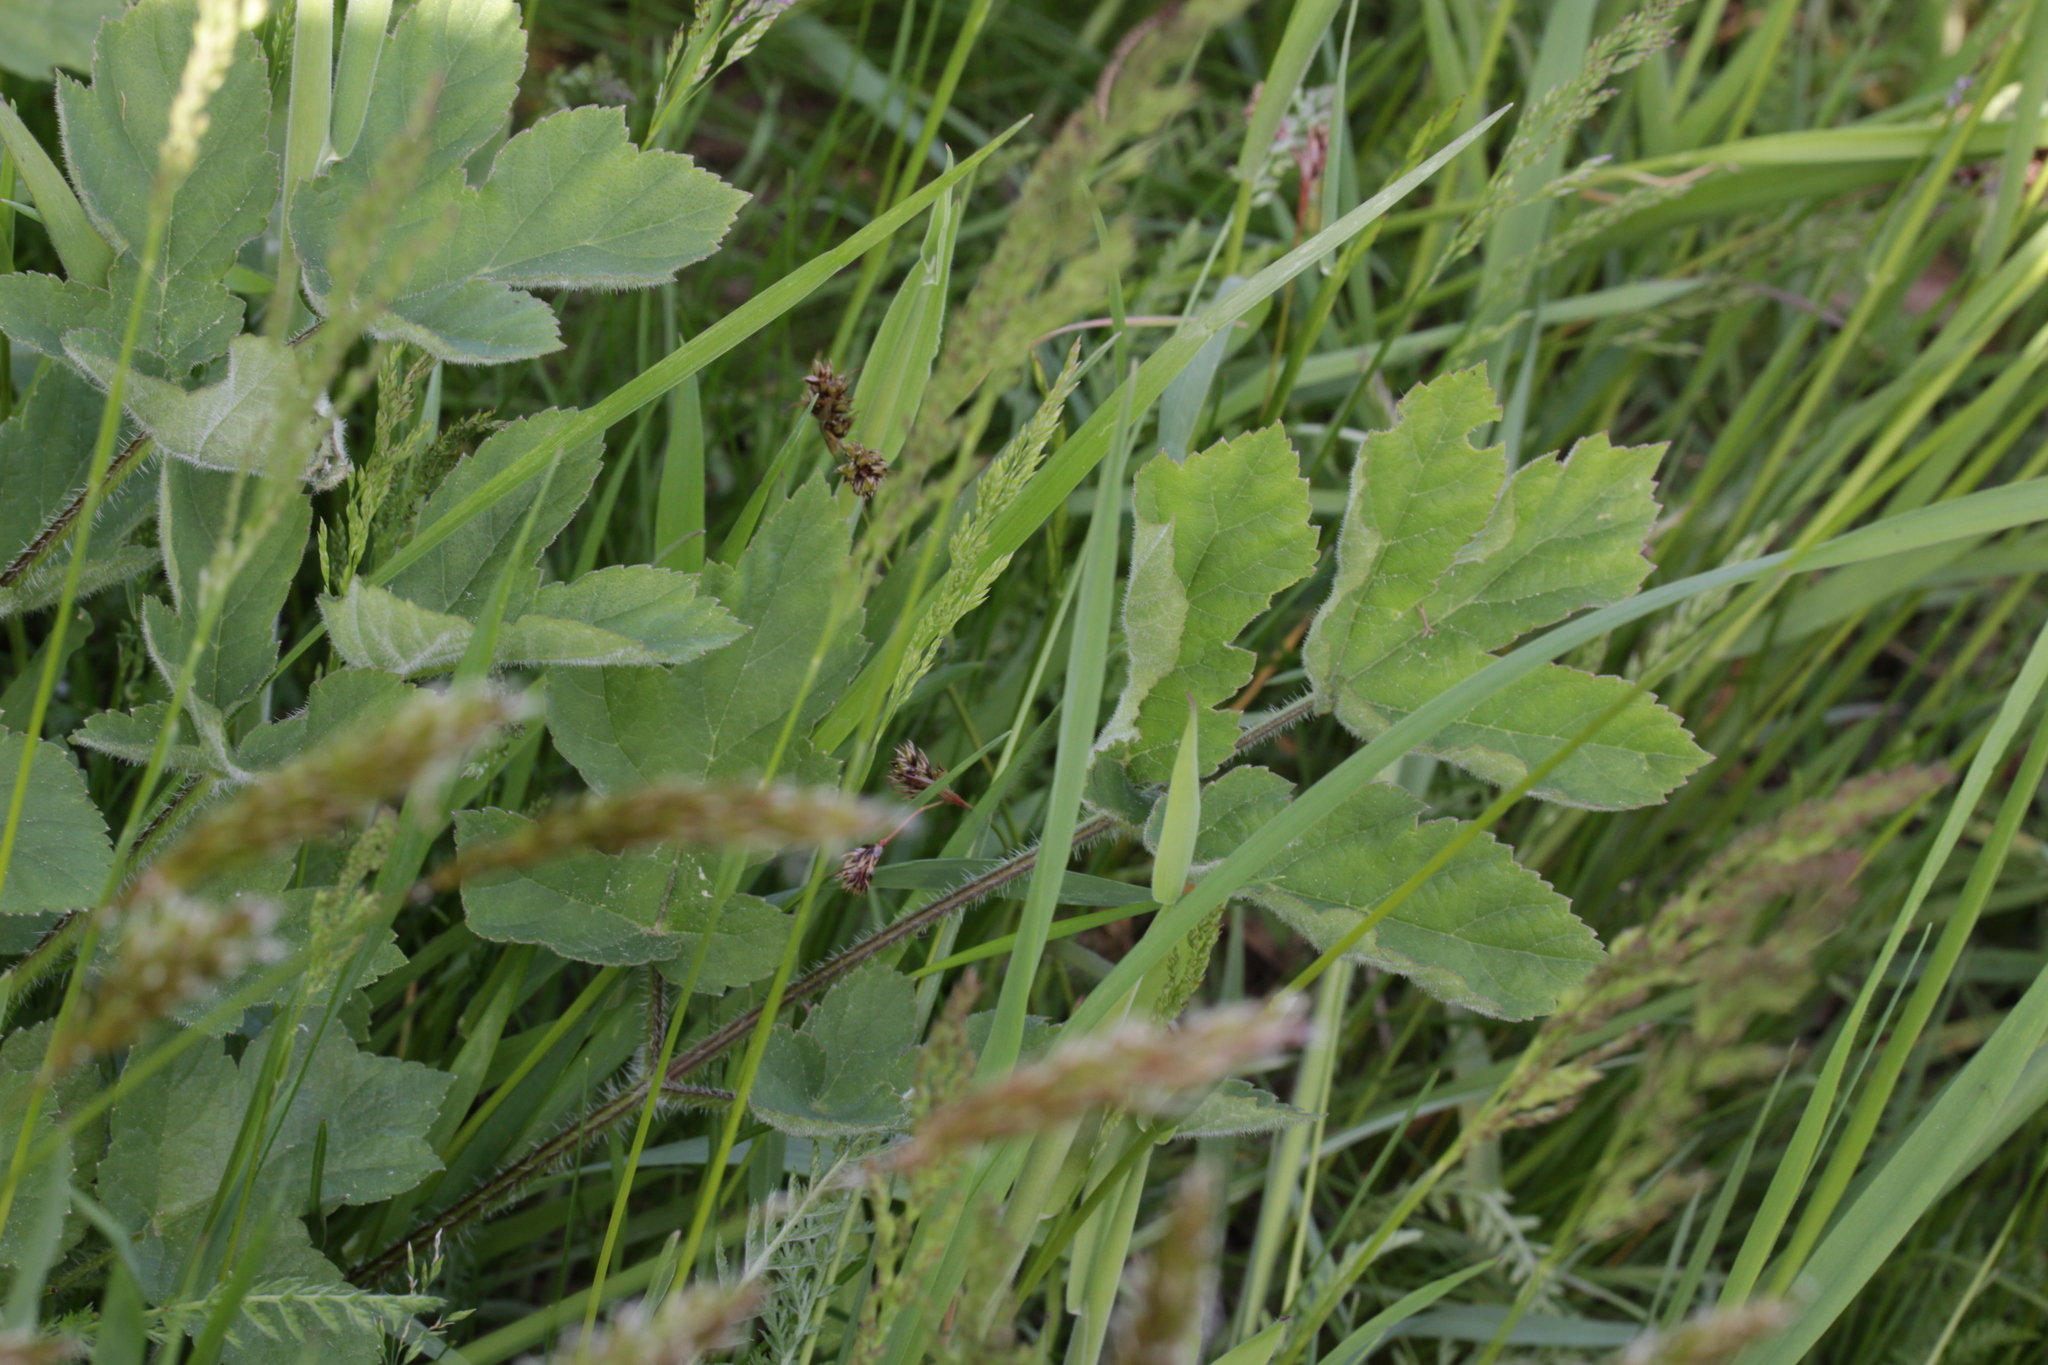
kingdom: Plantae
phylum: Tracheophyta
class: Magnoliopsida
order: Apiales
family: Apiaceae
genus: Heracleum
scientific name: Heracleum sphondylium
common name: Hogweed
